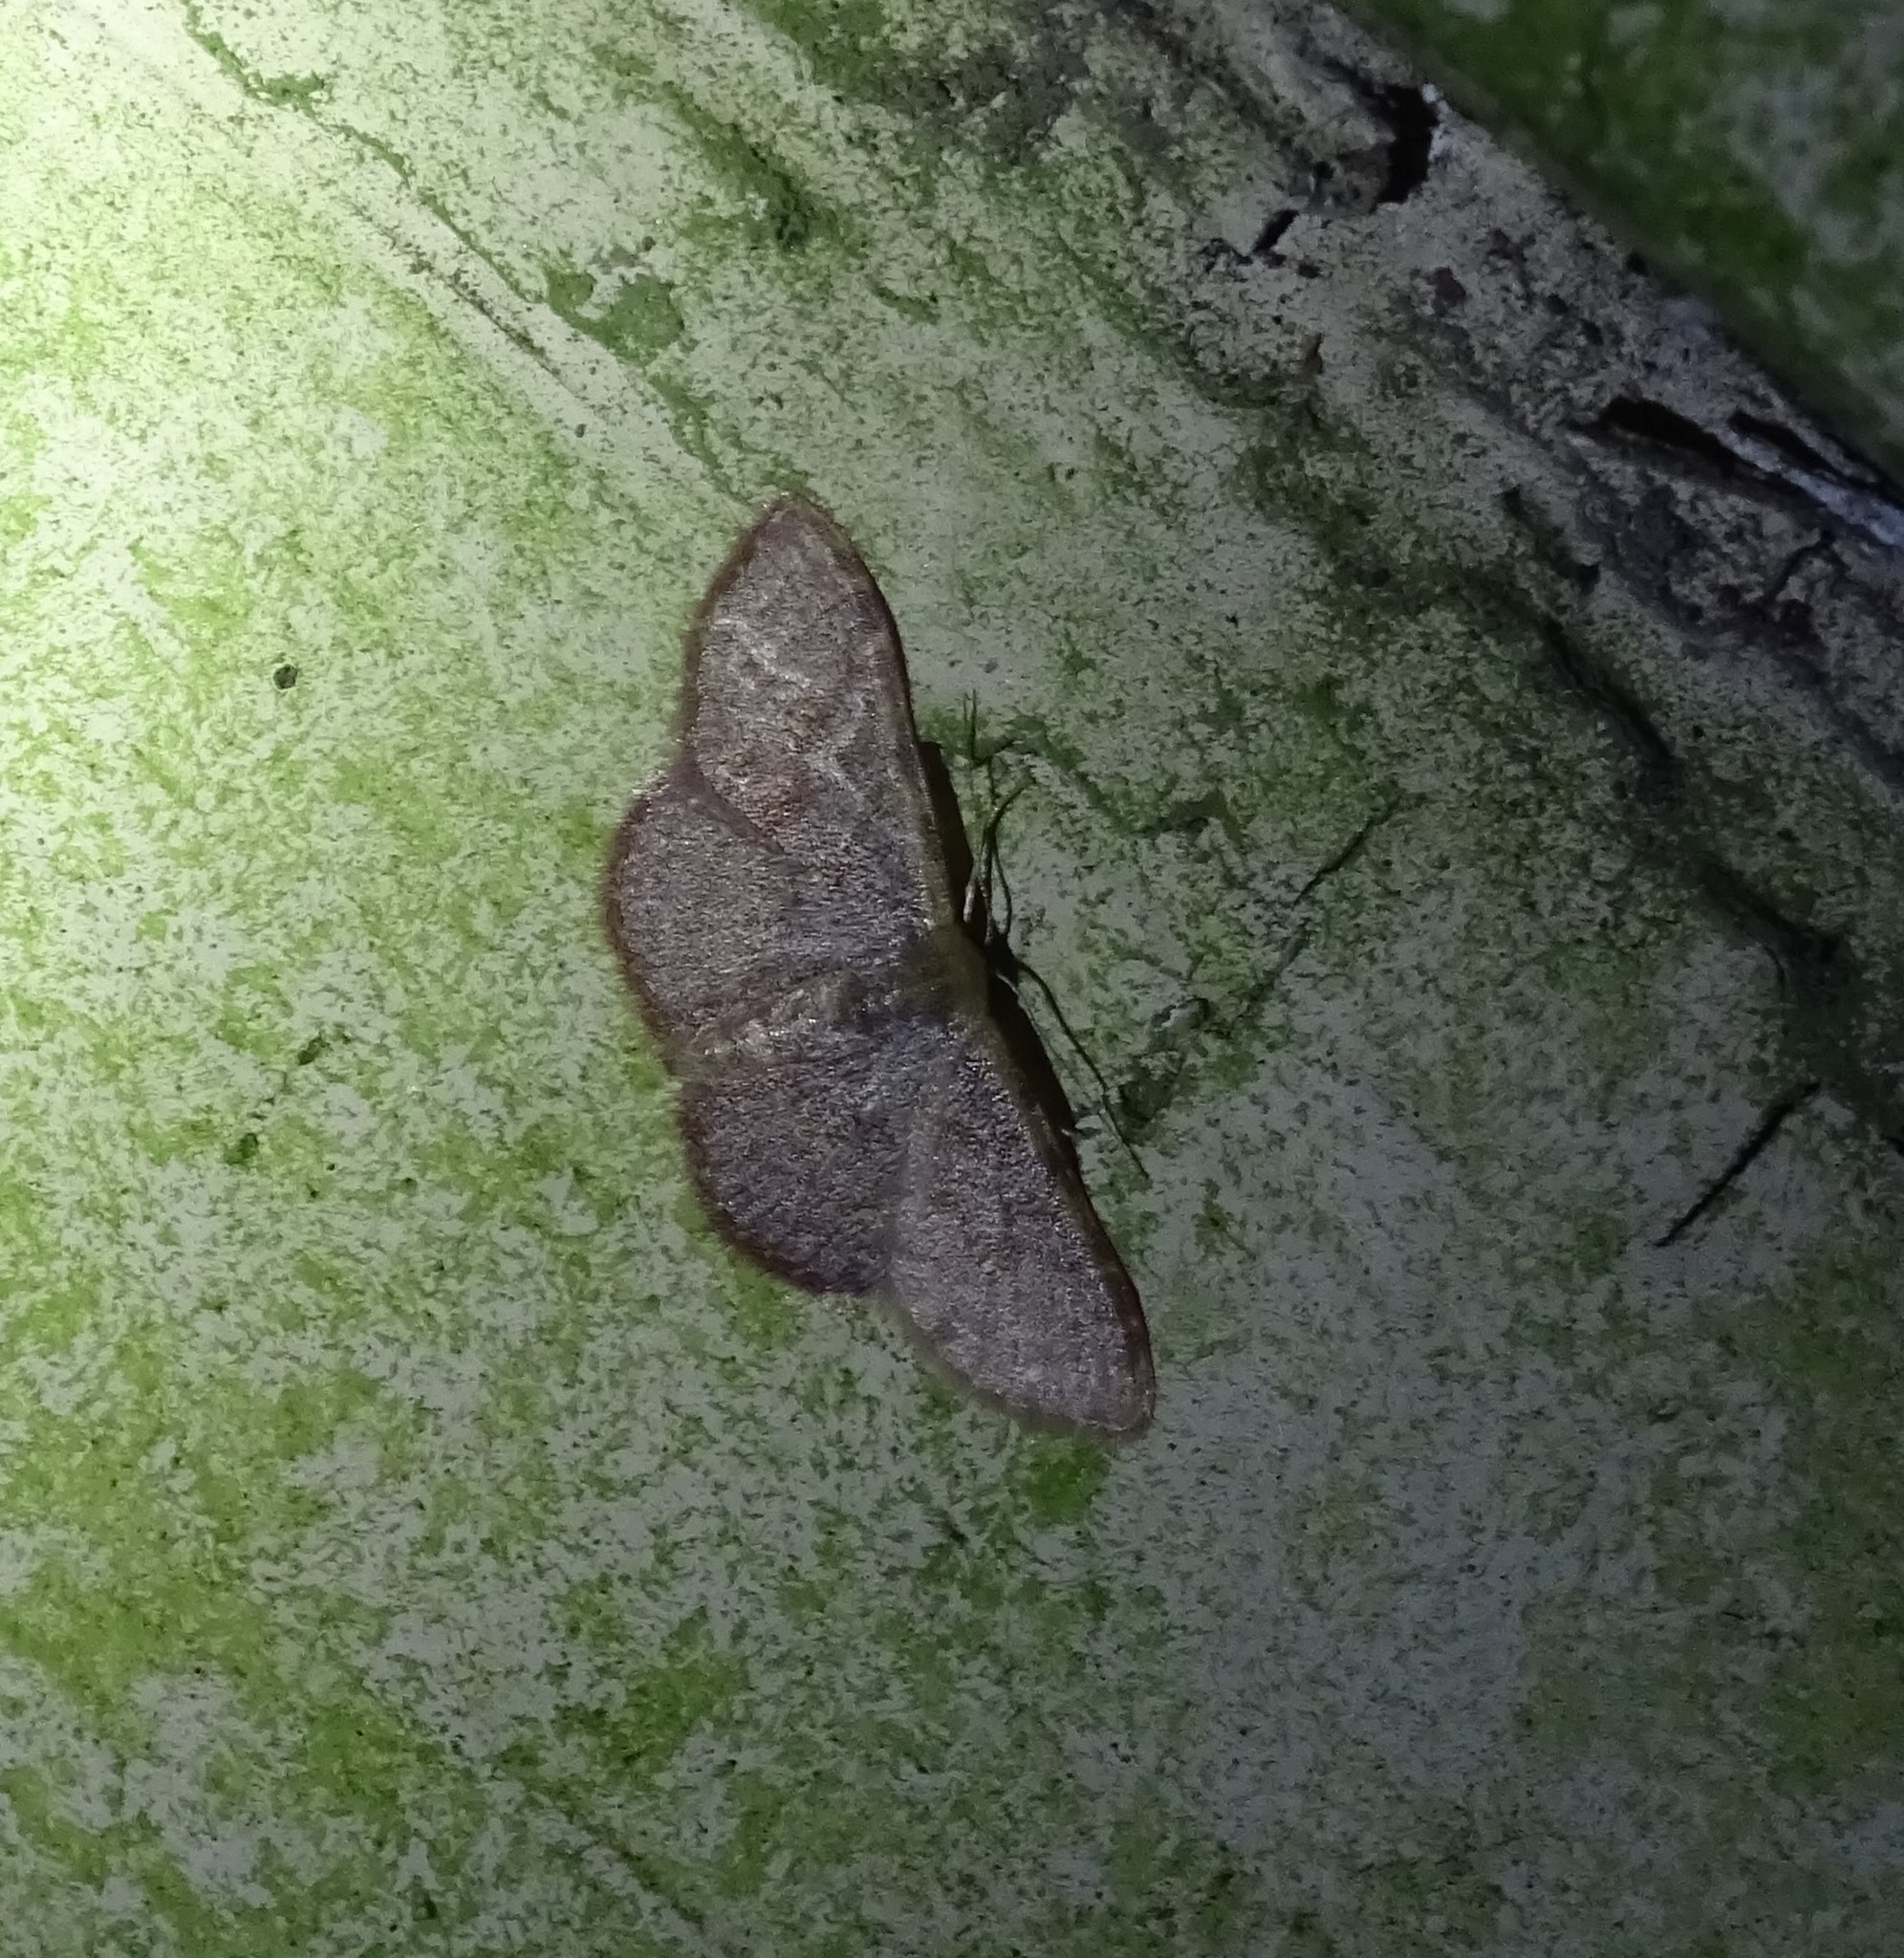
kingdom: Animalia
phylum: Arthropoda
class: Insecta
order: Lepidoptera
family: Geometridae
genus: Leptostales
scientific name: Leptostales pannaria
